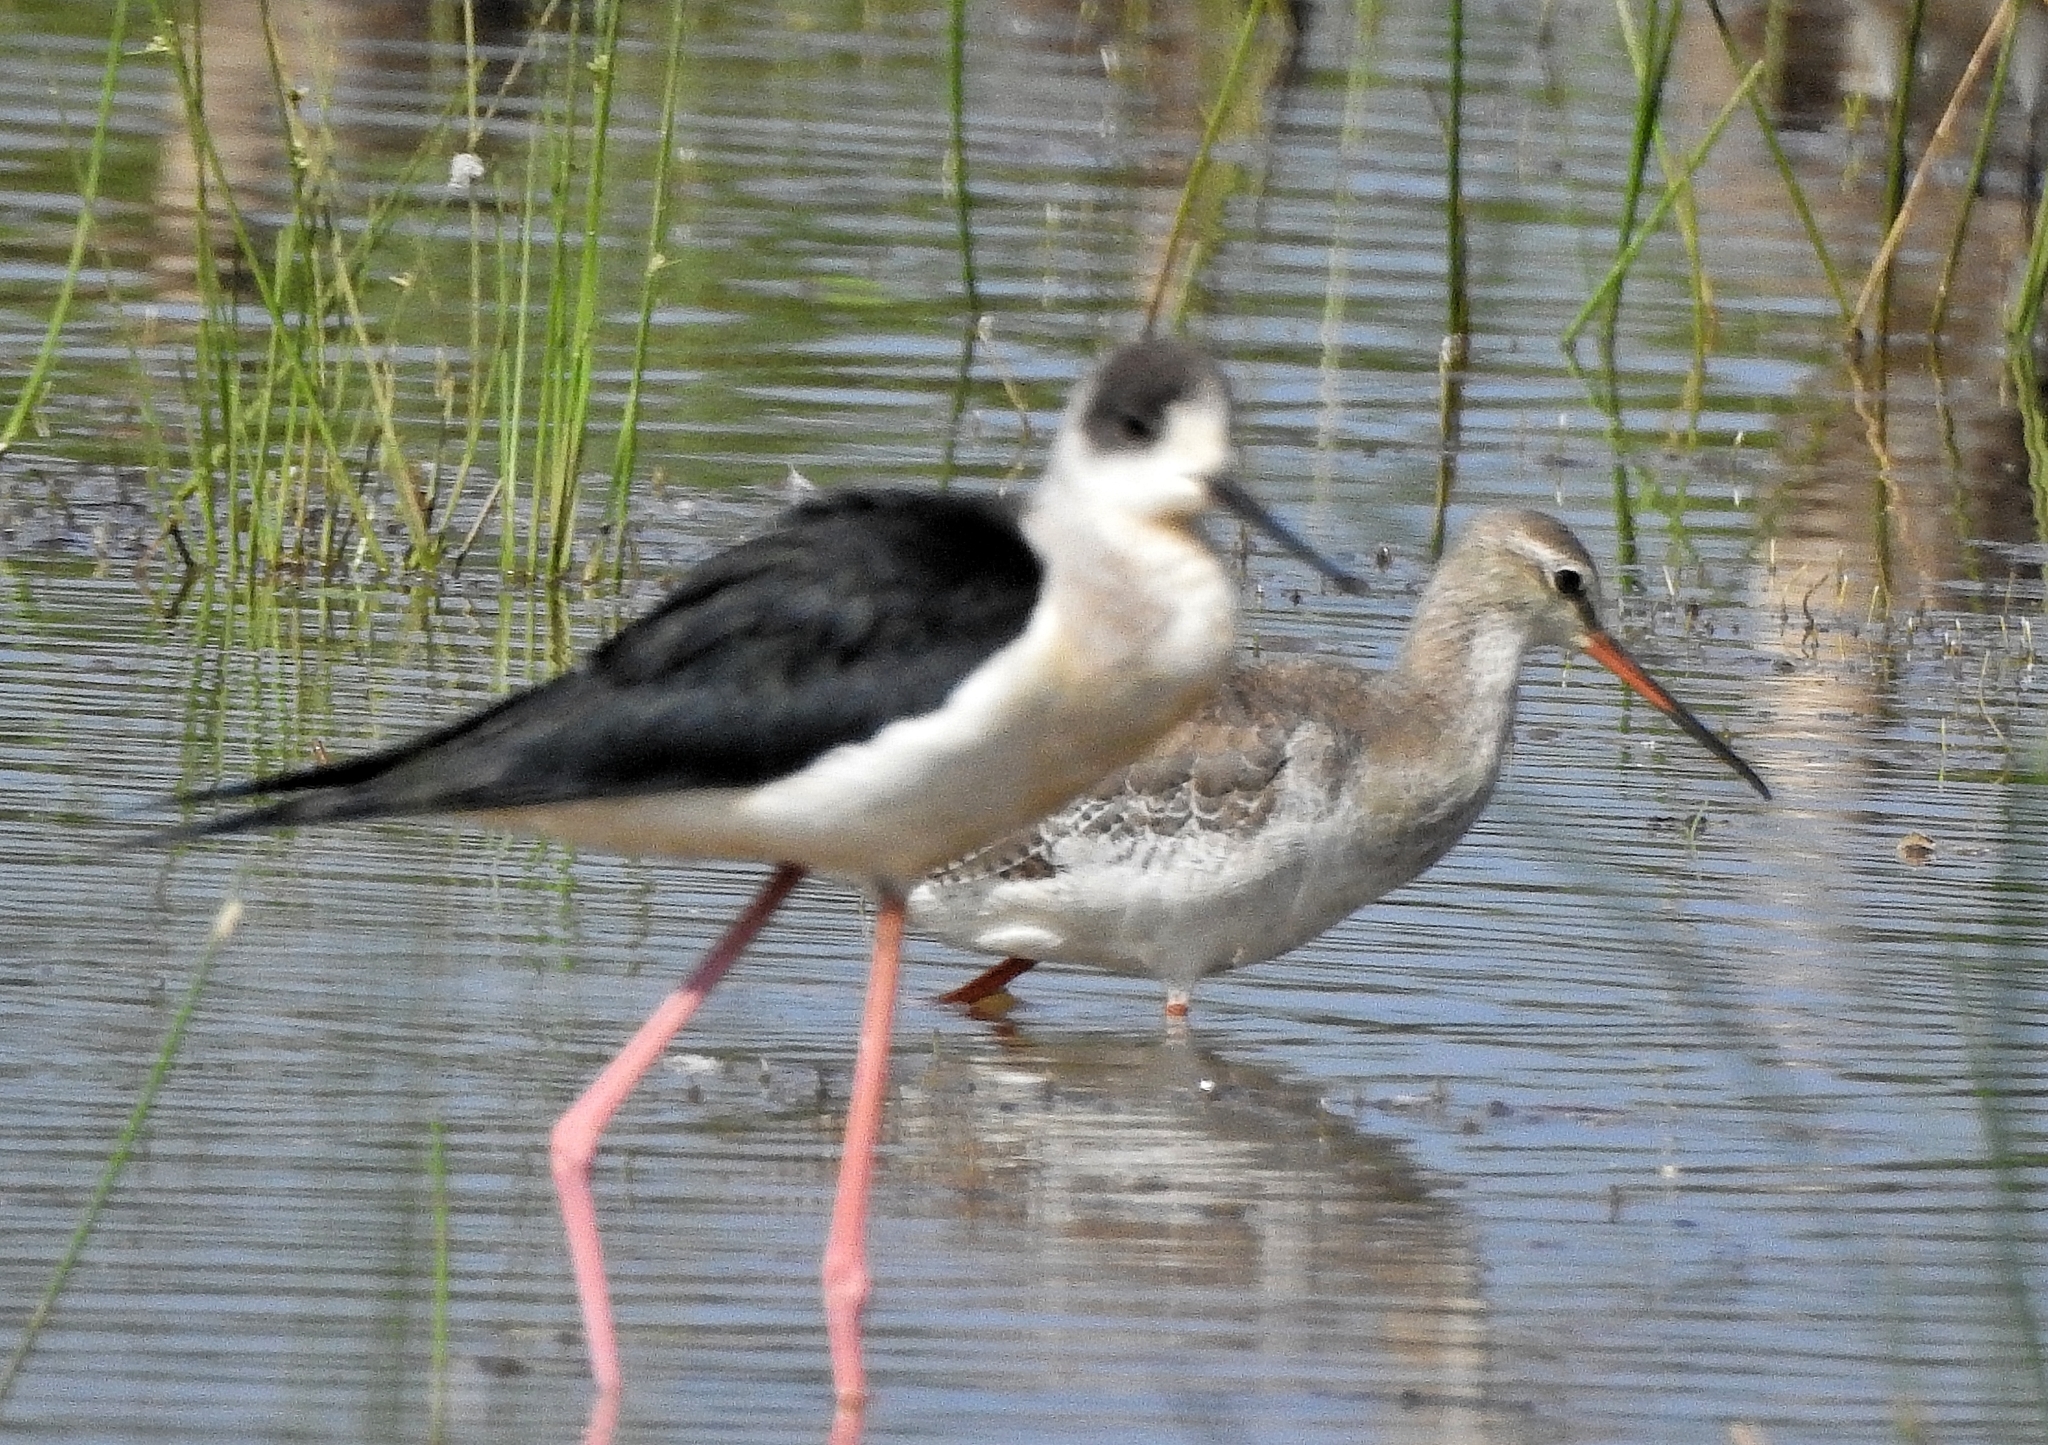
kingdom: Animalia
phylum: Chordata
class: Aves
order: Charadriiformes
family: Scolopacidae
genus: Tringa
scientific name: Tringa erythropus
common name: Spotted redshank
